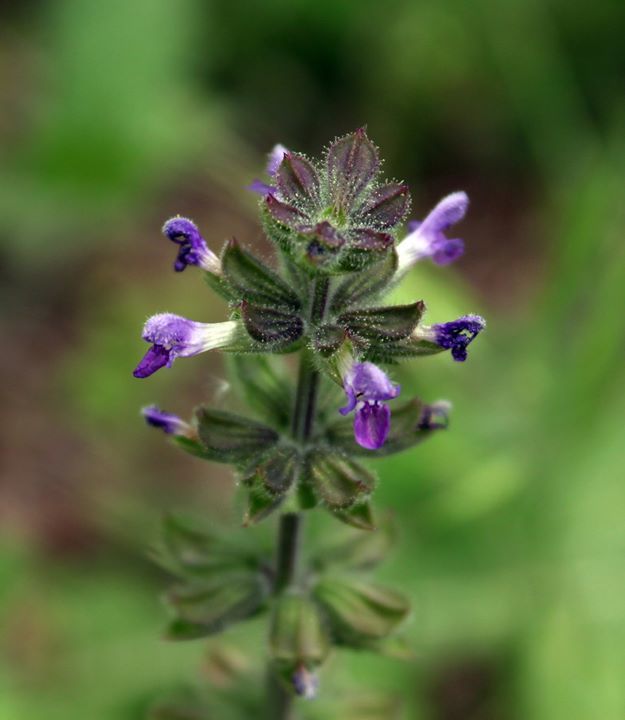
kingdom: Plantae
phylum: Tracheophyta
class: Magnoliopsida
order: Lamiales
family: Lamiaceae
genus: Salvia
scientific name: Salvia verbenaca
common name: Wild clary
